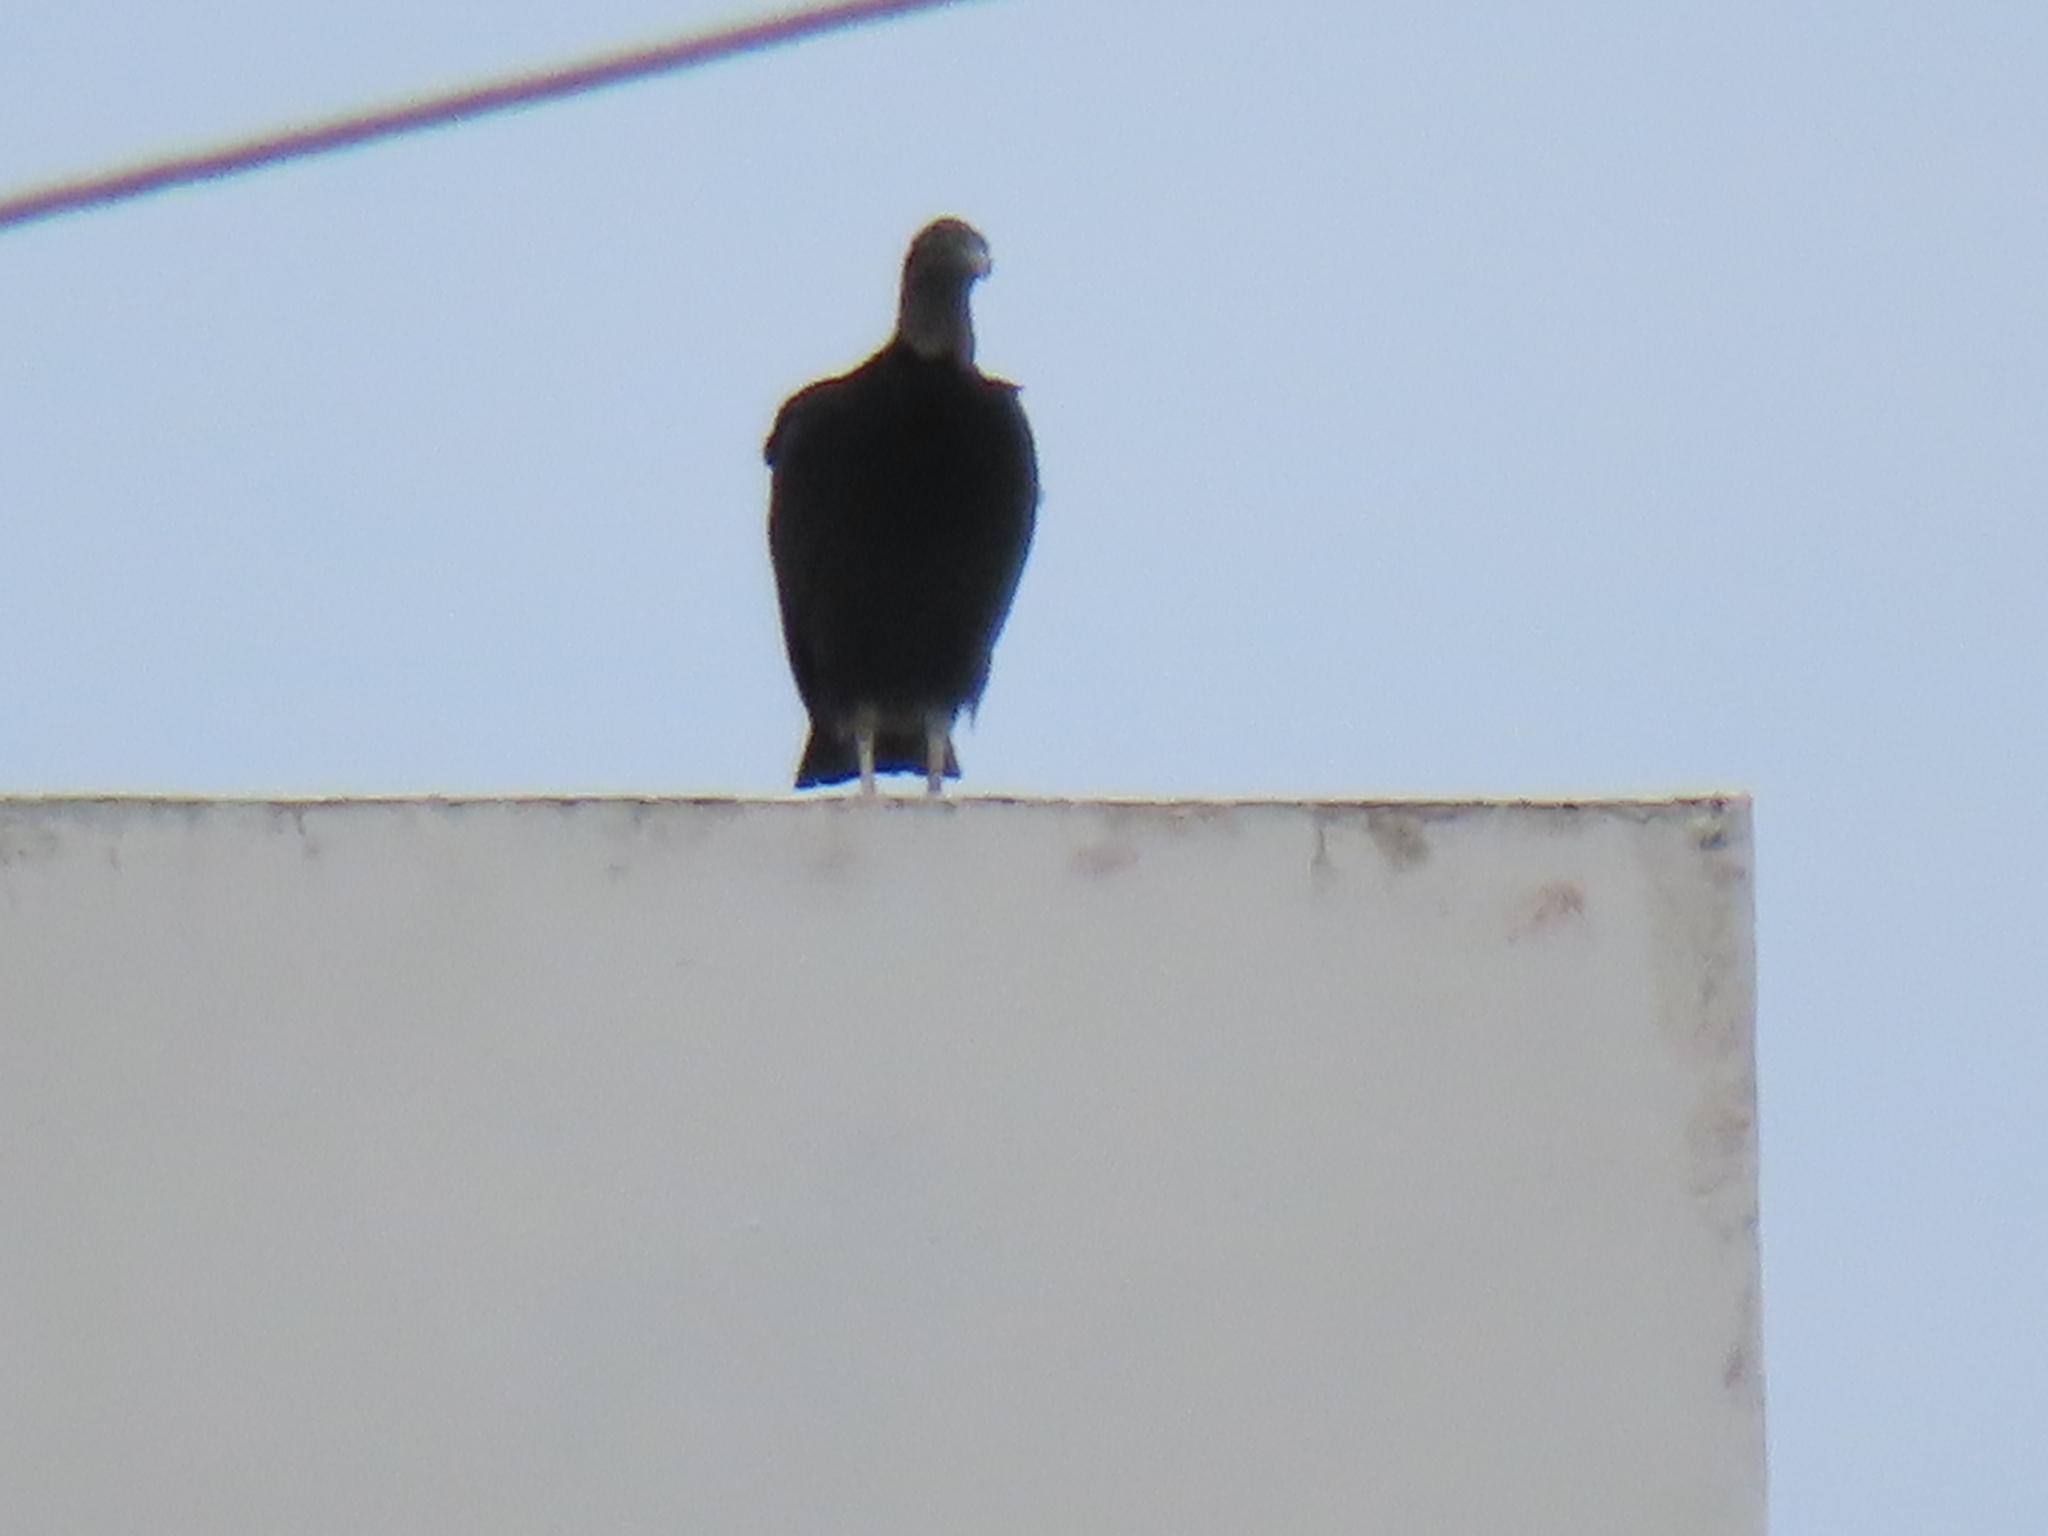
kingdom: Animalia
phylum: Chordata
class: Aves
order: Accipitriformes
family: Cathartidae
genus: Coragyps
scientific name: Coragyps atratus
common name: Black vulture
